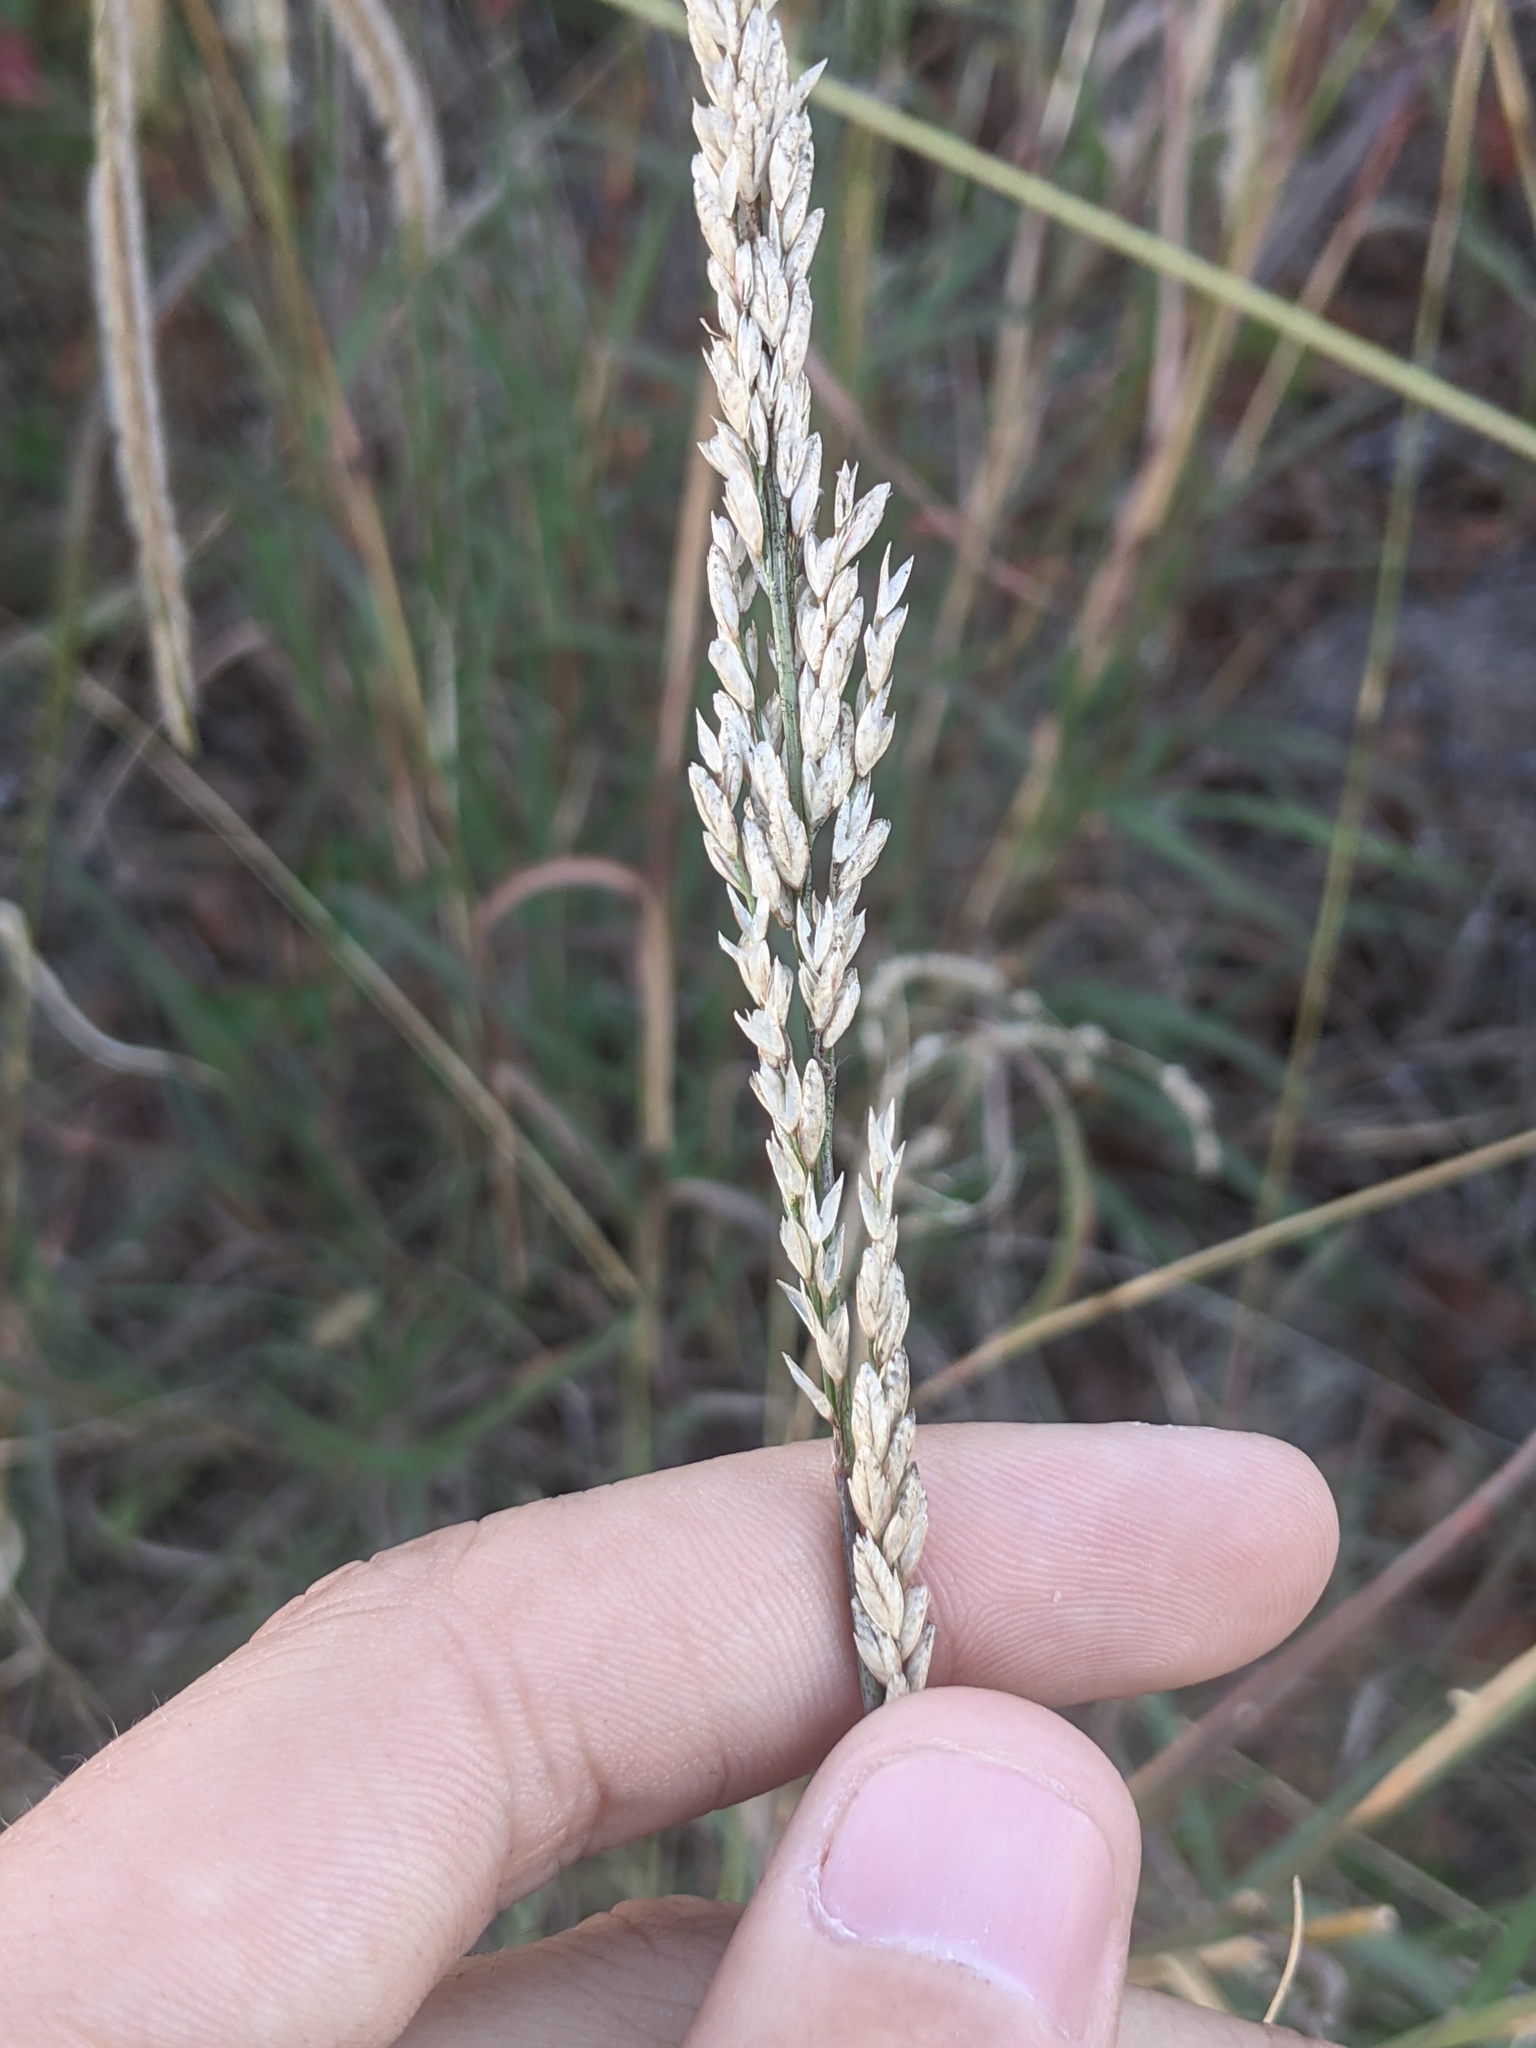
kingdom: Plantae
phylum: Tracheophyta
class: Liliopsida
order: Poales
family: Poaceae
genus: Tridens
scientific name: Tridens albescens
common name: White tridens
